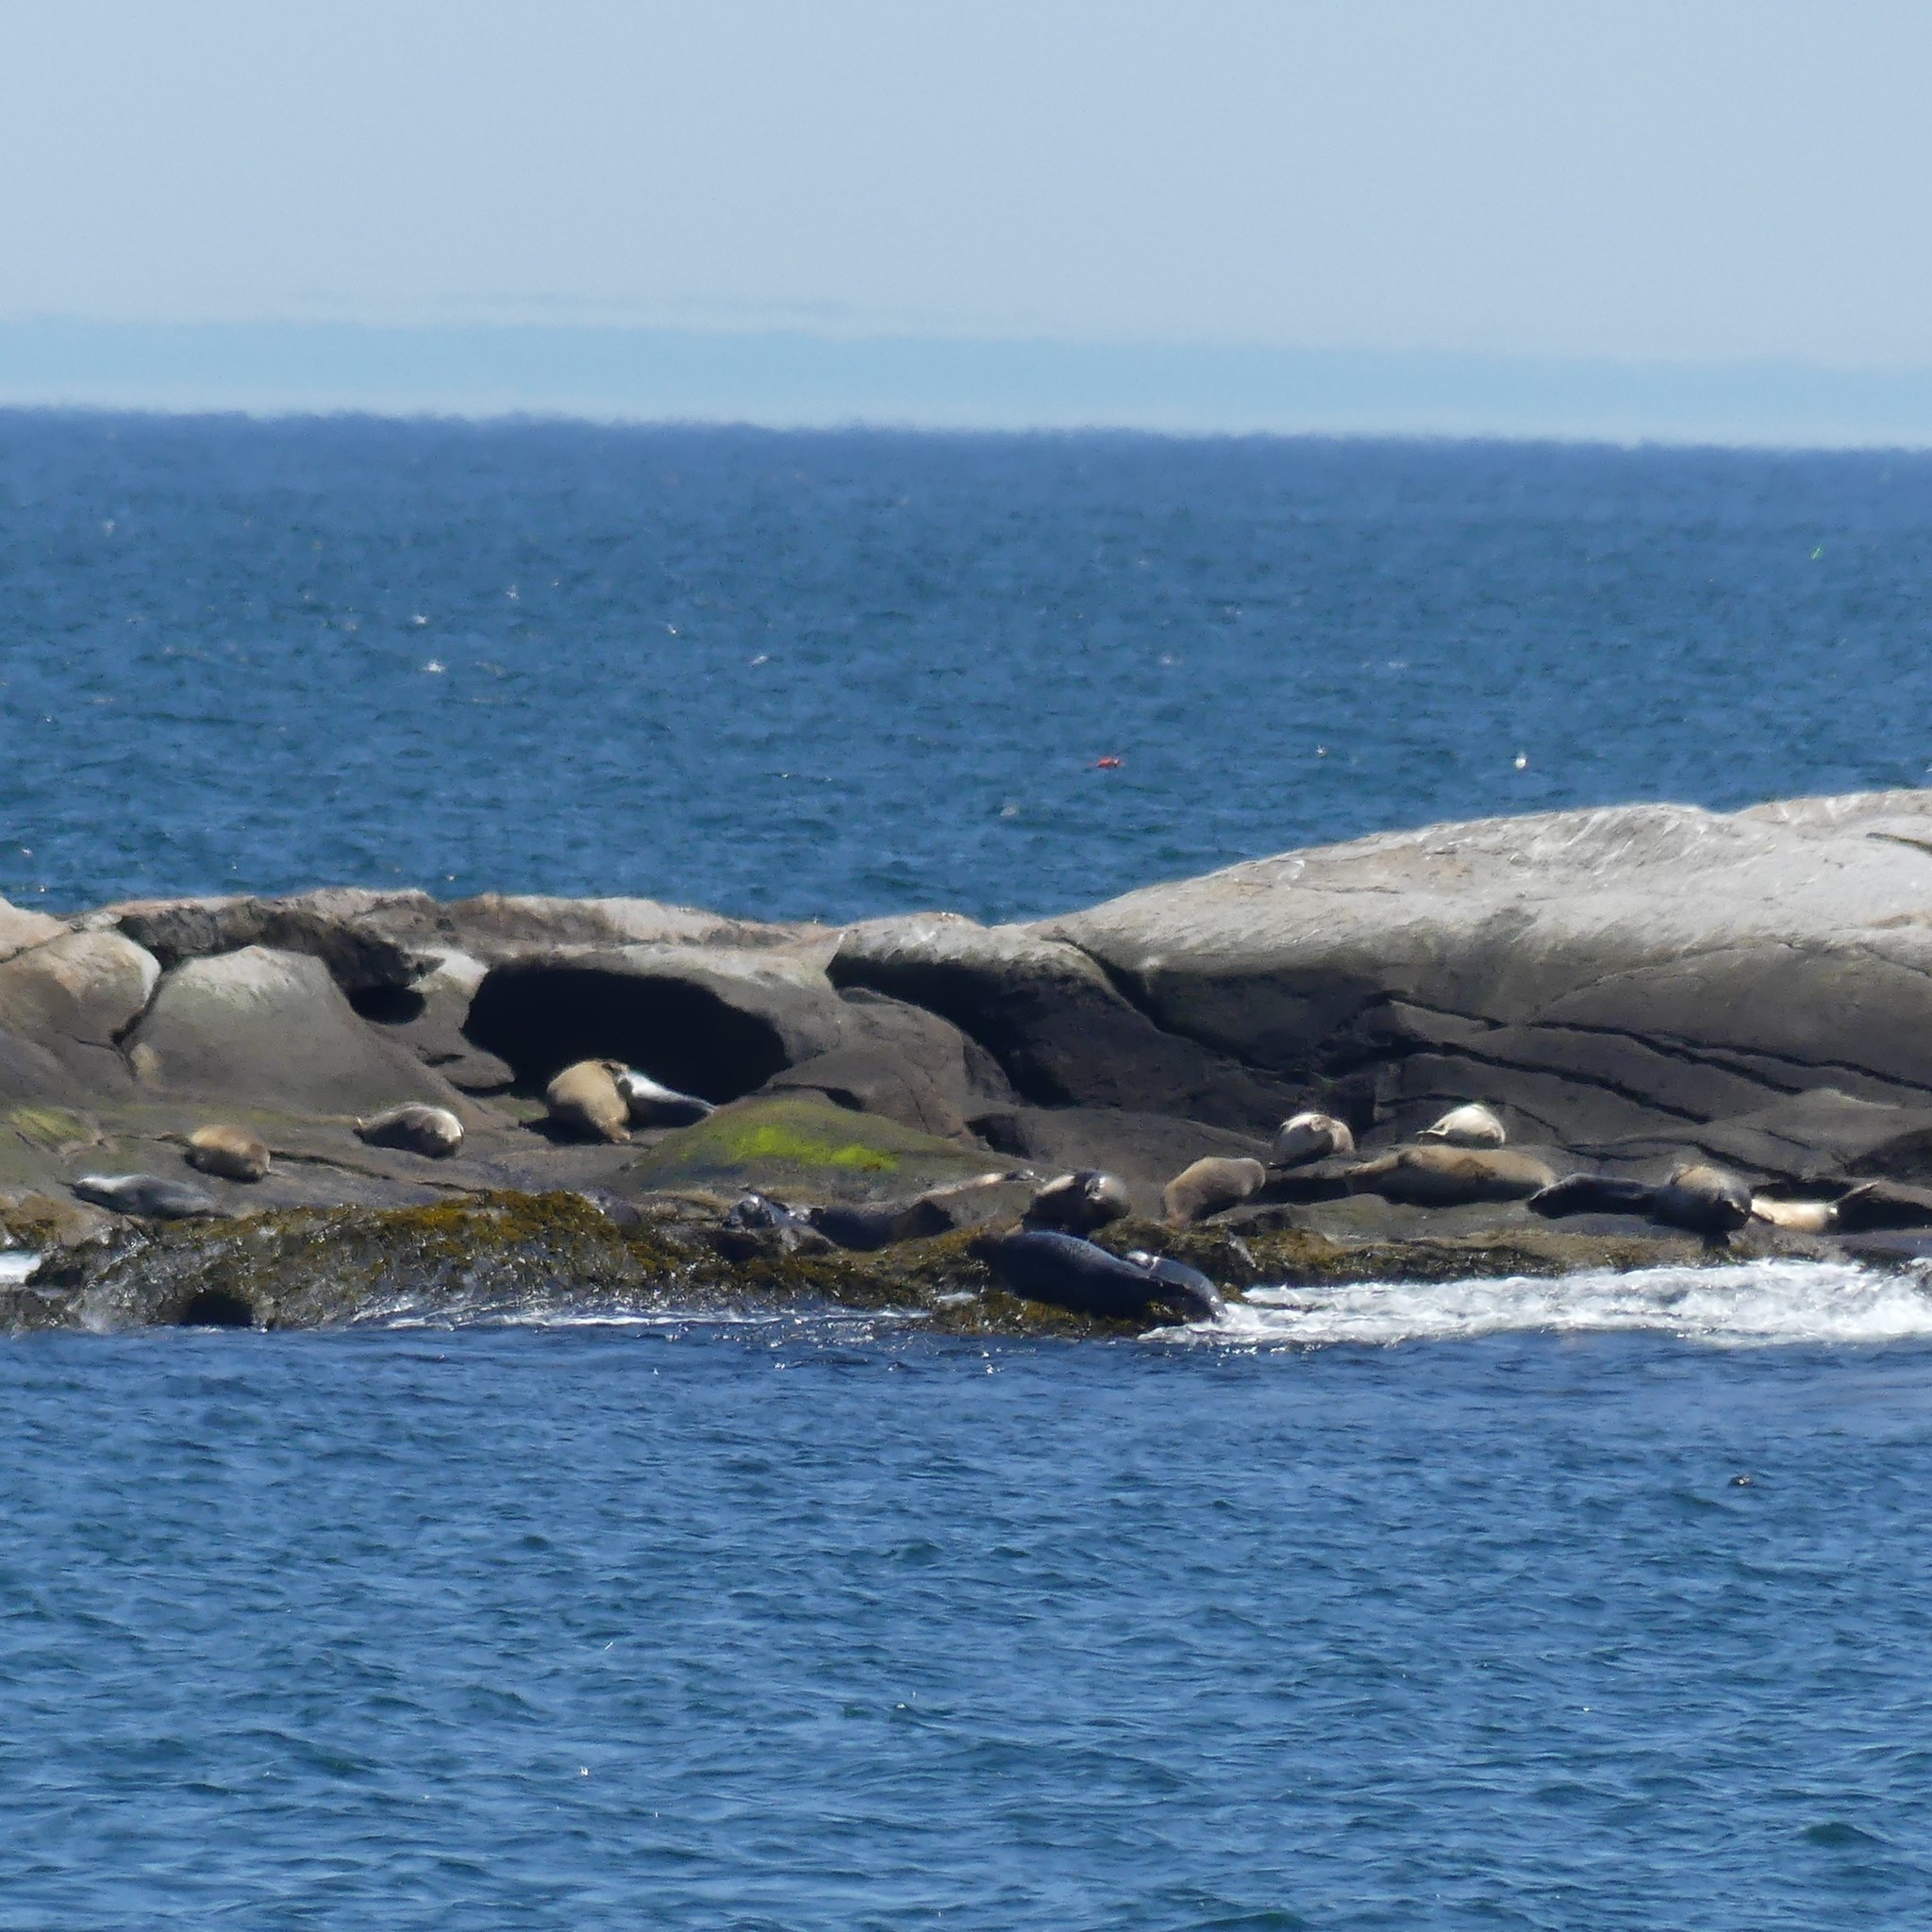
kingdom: Animalia
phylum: Chordata
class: Mammalia
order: Carnivora
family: Phocidae
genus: Phoca
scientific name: Phoca vitulina
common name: Harbor seal
